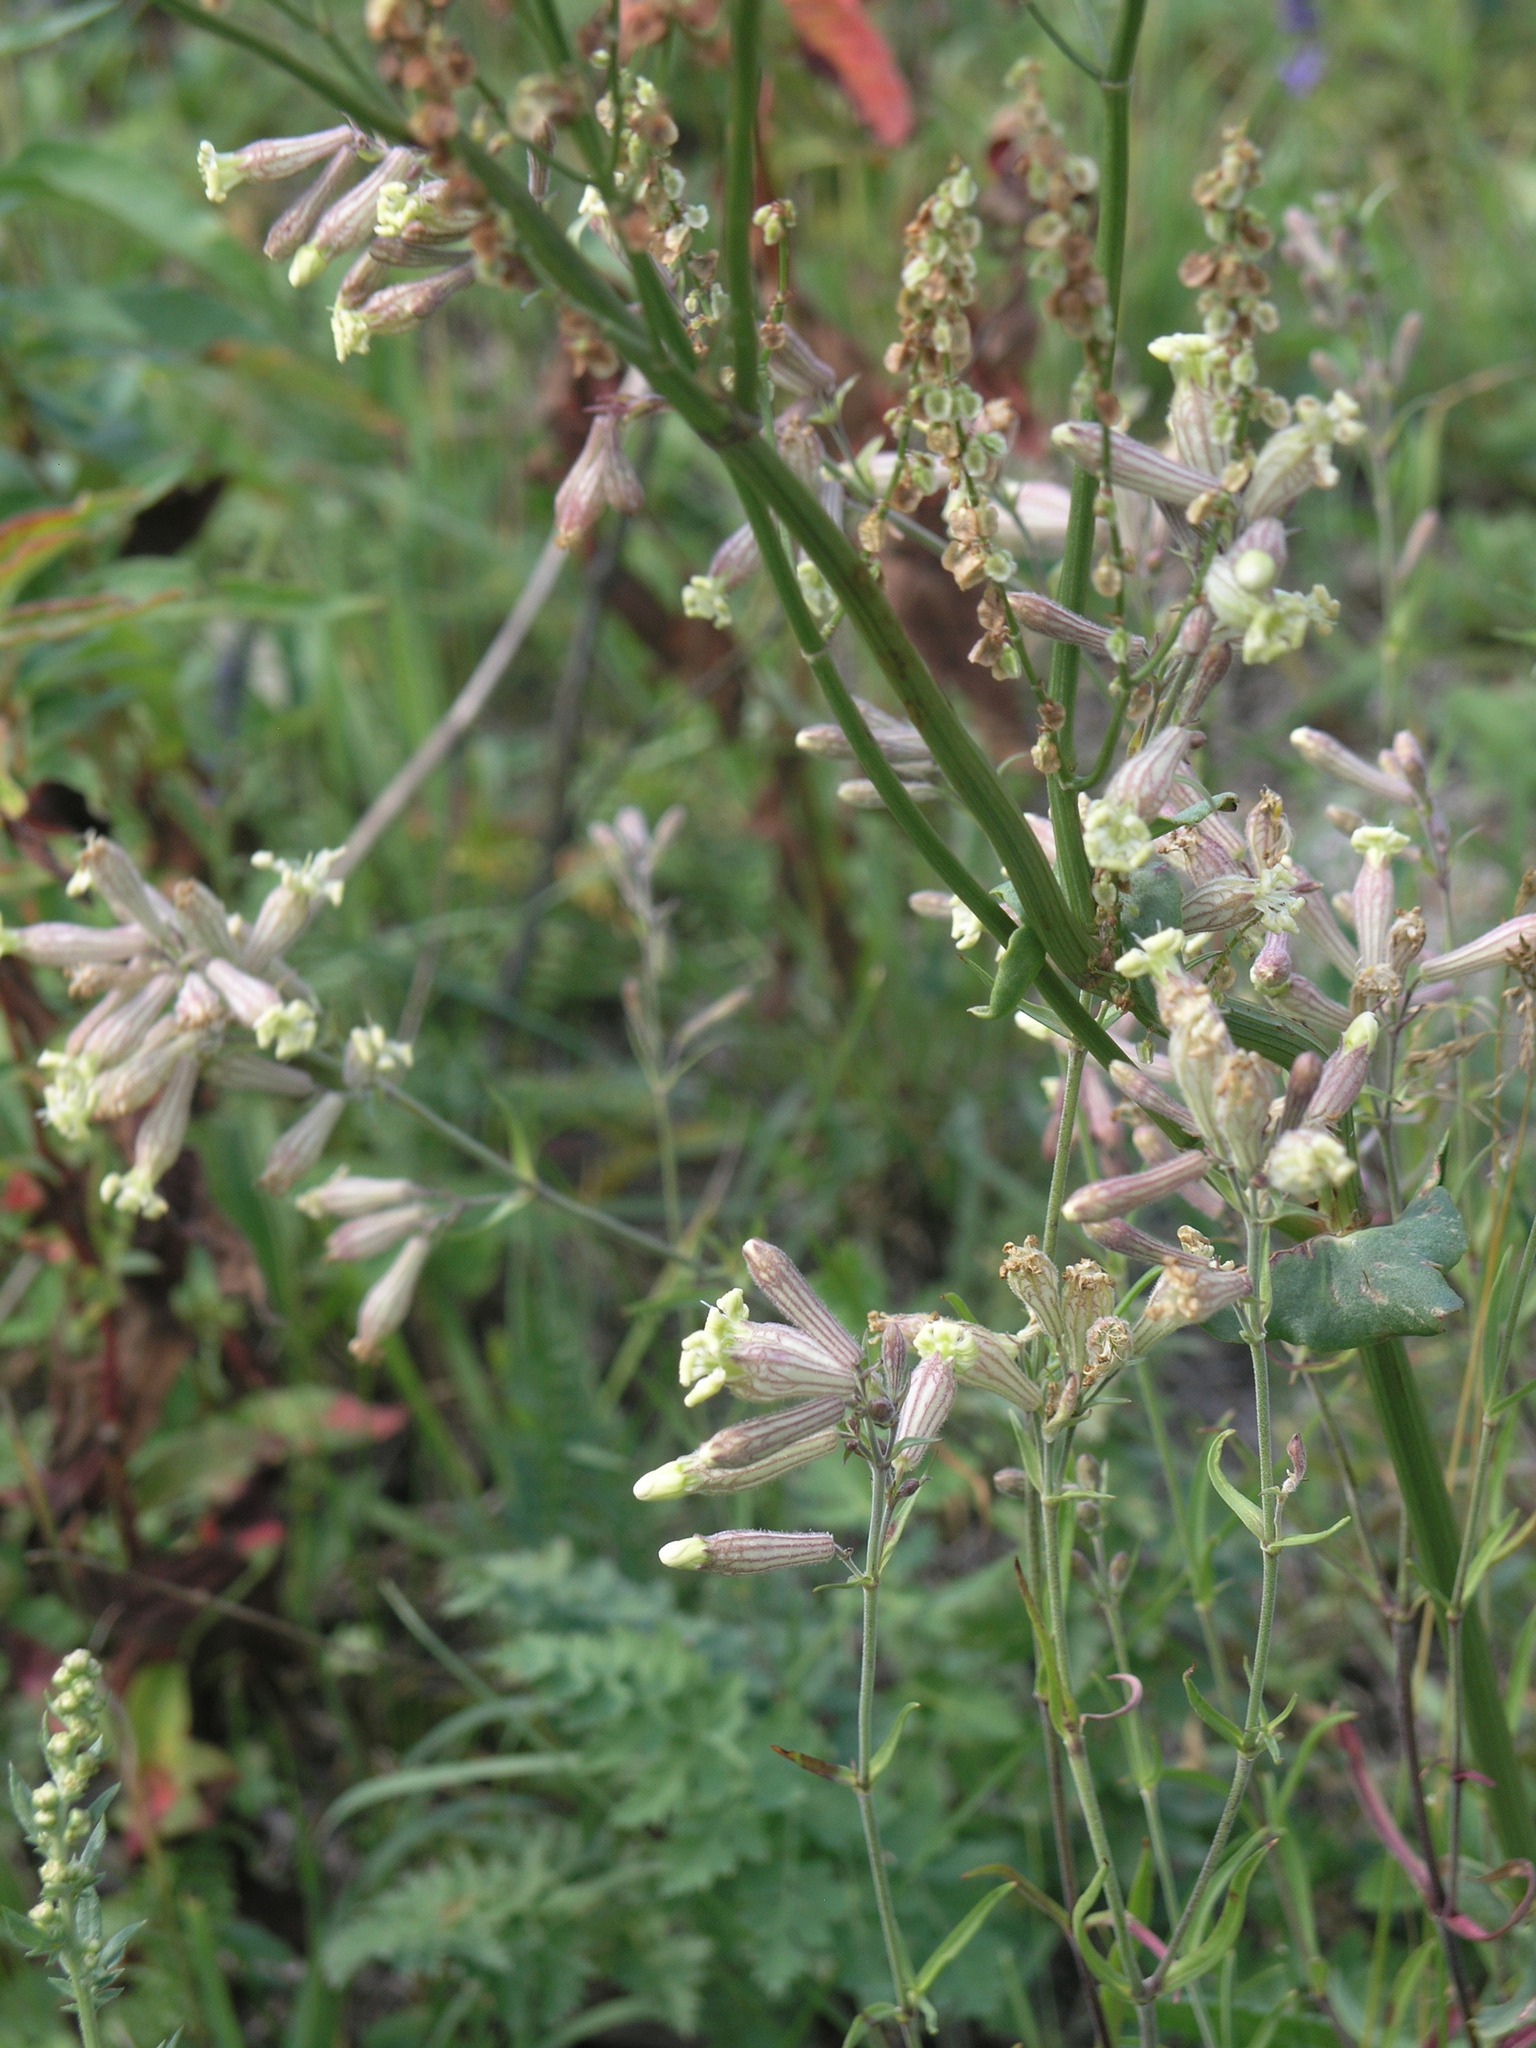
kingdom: Plantae
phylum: Tracheophyta
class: Magnoliopsida
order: Caryophyllales
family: Caryophyllaceae
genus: Silene
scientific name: Silene repens
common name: Pink campion
